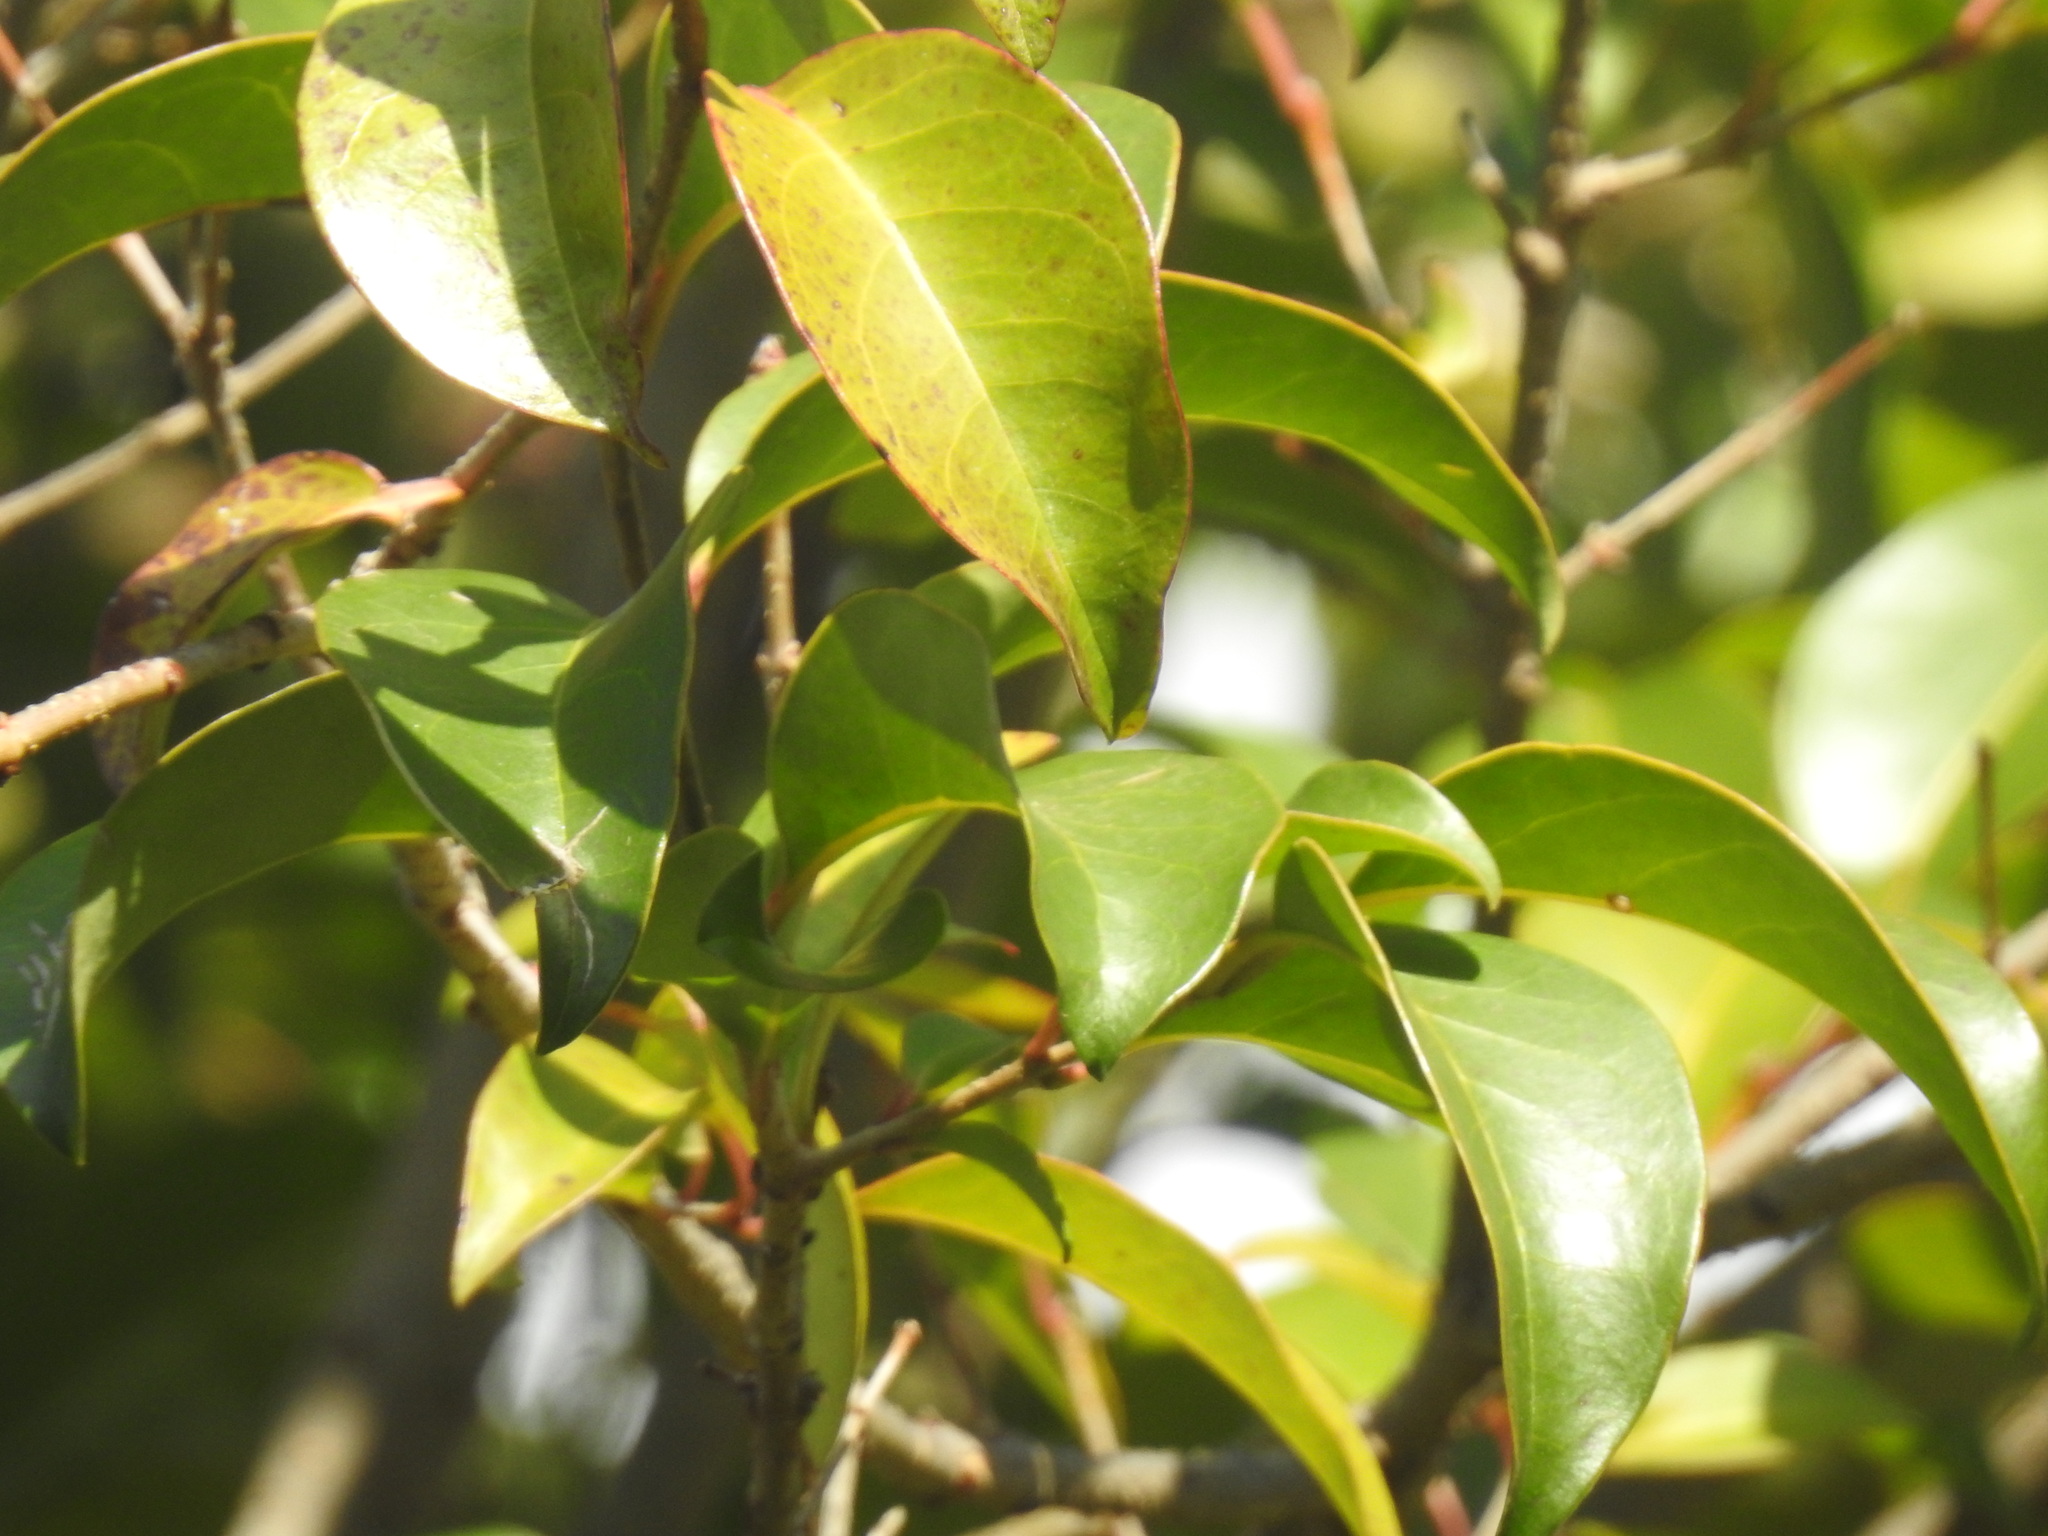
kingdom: Plantae
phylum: Tracheophyta
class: Magnoliopsida
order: Lamiales
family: Oleaceae
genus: Ligustrum
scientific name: Ligustrum lucidum
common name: Glossy privet
